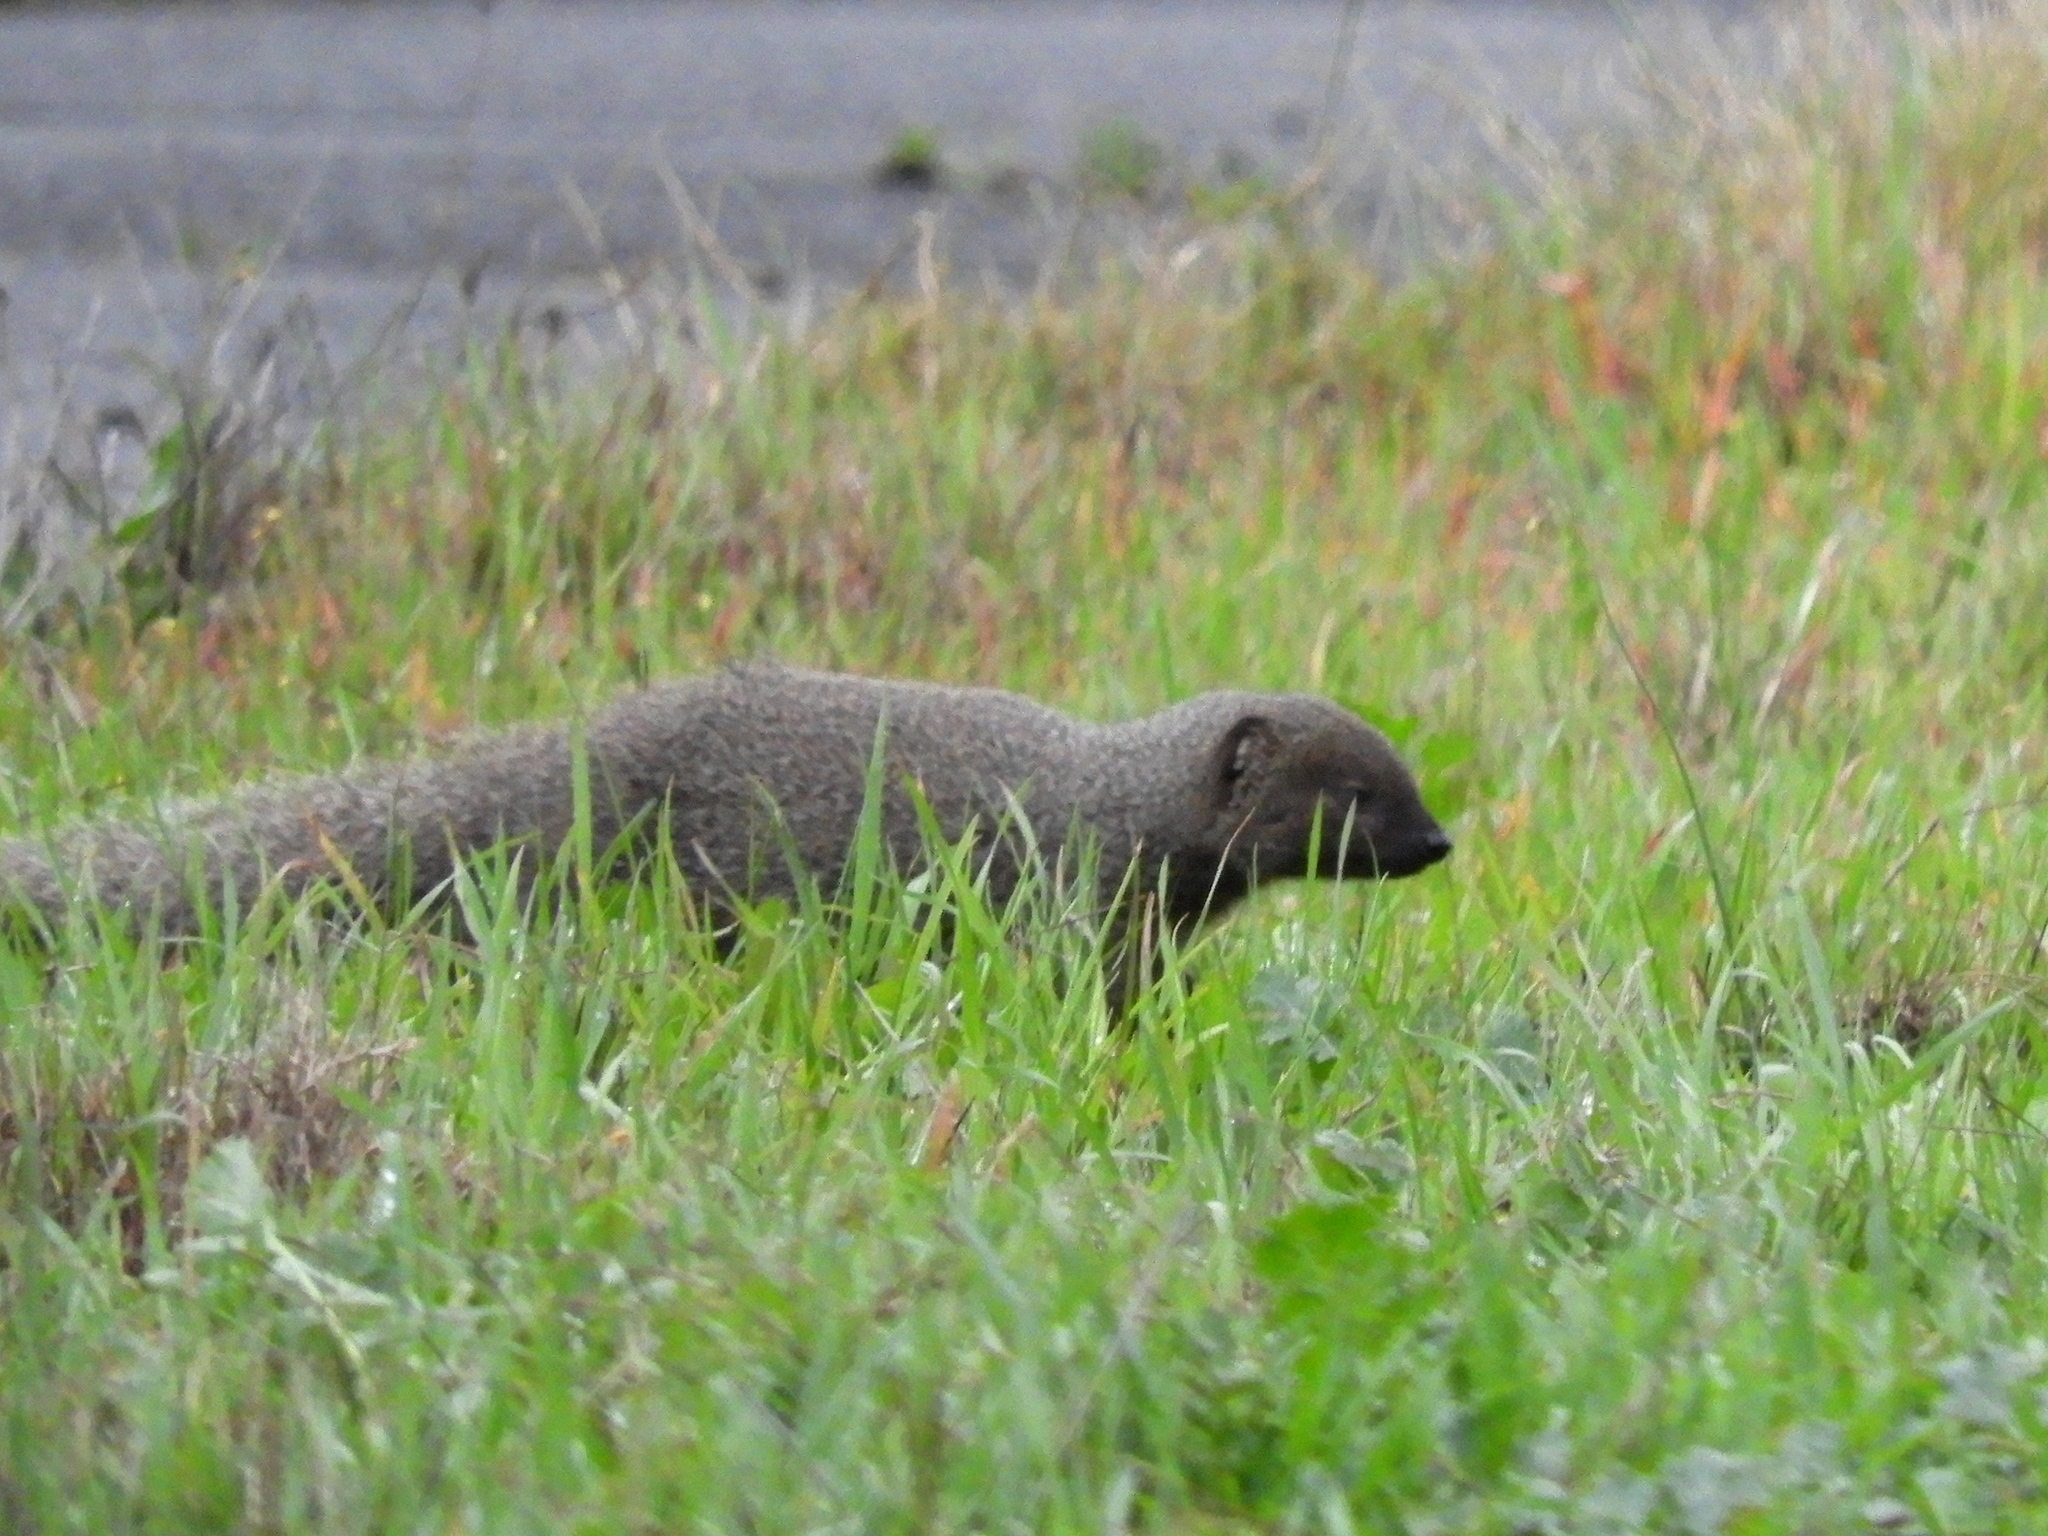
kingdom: Animalia
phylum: Chordata
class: Mammalia
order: Carnivora
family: Herpestidae
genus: Galerella
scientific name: Galerella pulverulenta
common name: Cape gray mongoose
